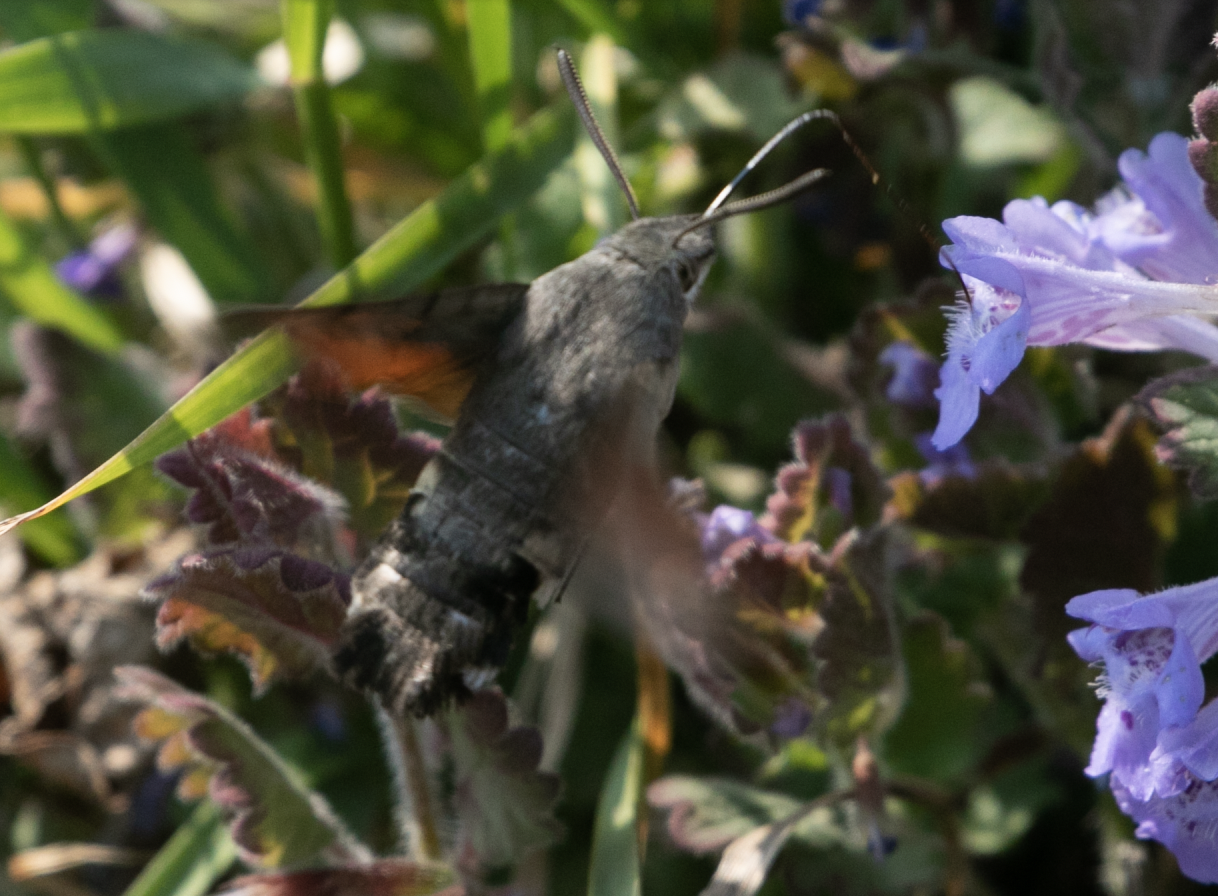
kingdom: Animalia
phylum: Arthropoda
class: Insecta
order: Lepidoptera
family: Sphingidae
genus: Macroglossum
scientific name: Macroglossum stellatarum
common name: Humming-bird hawk-moth
